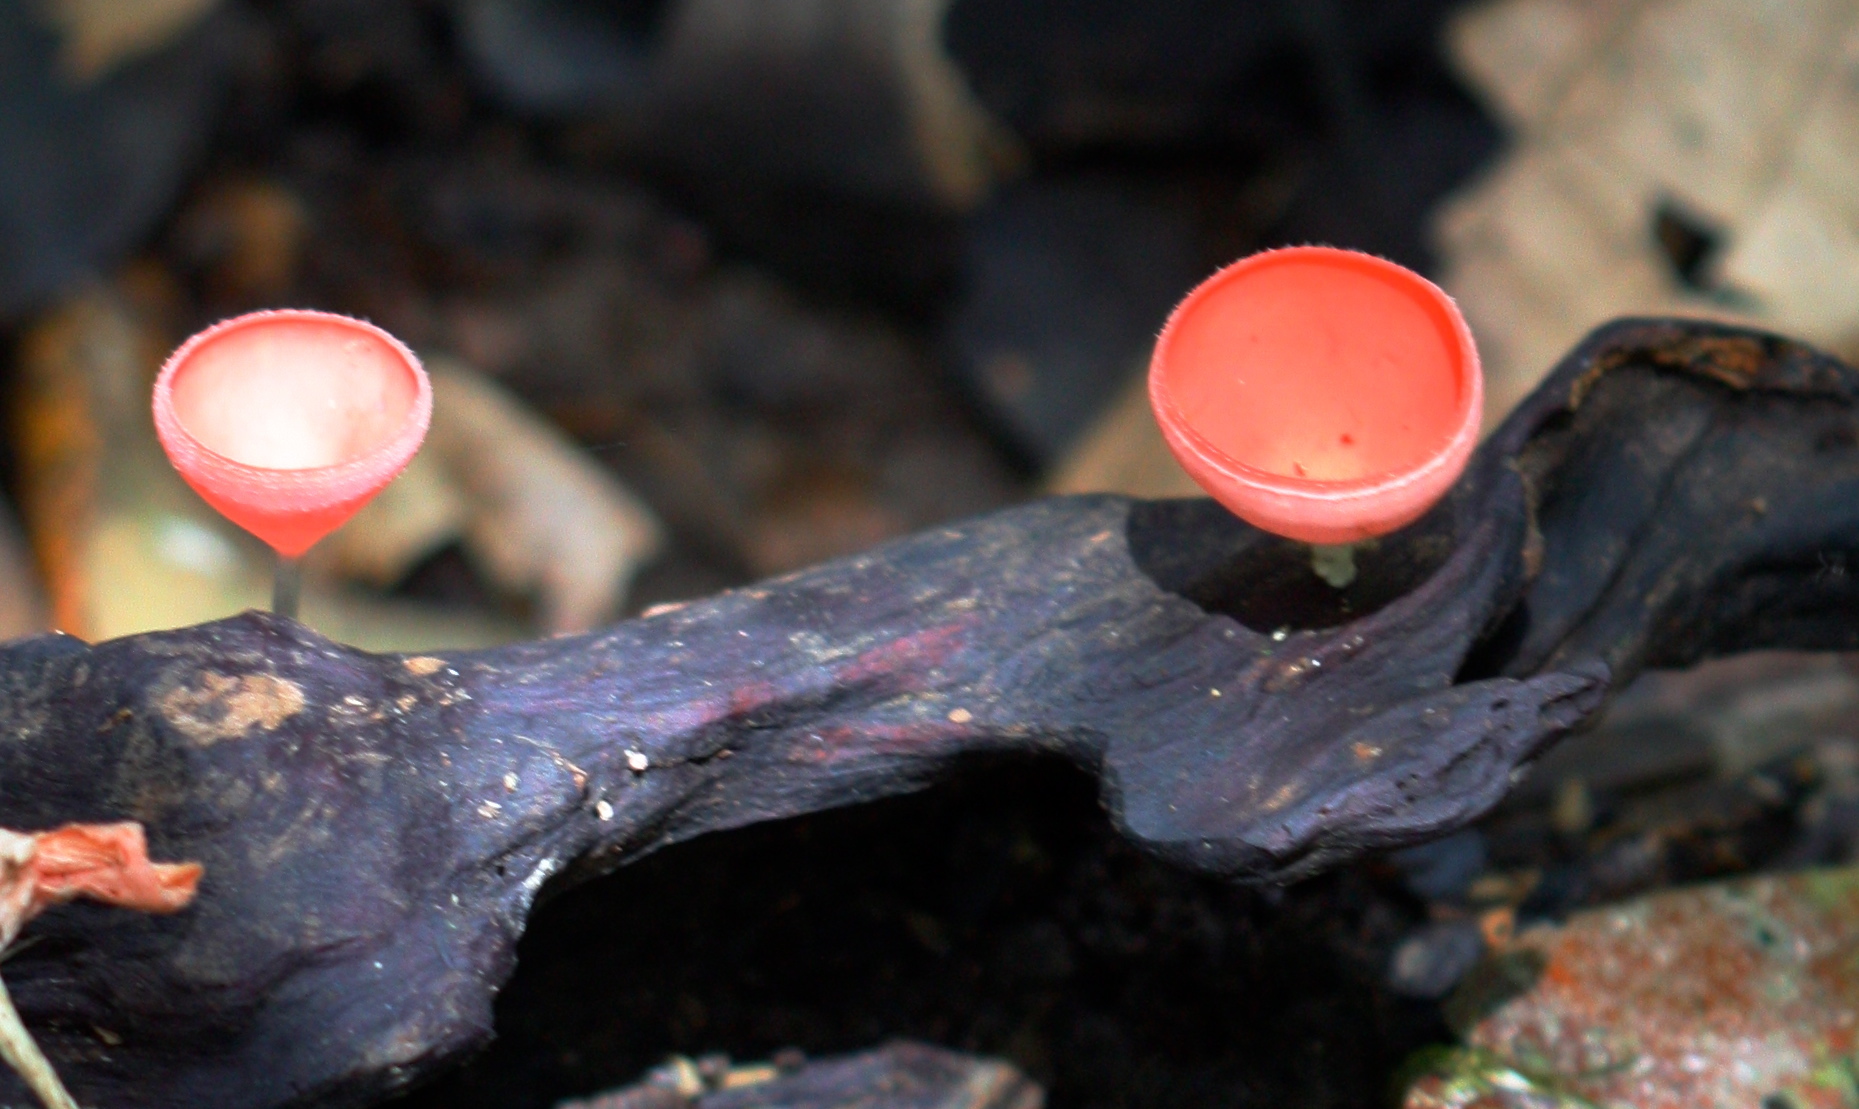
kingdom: Fungi
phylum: Ascomycota
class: Pezizomycetes
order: Pezizales
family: Sarcoscyphaceae
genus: Cookeina
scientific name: Cookeina sulcipes
